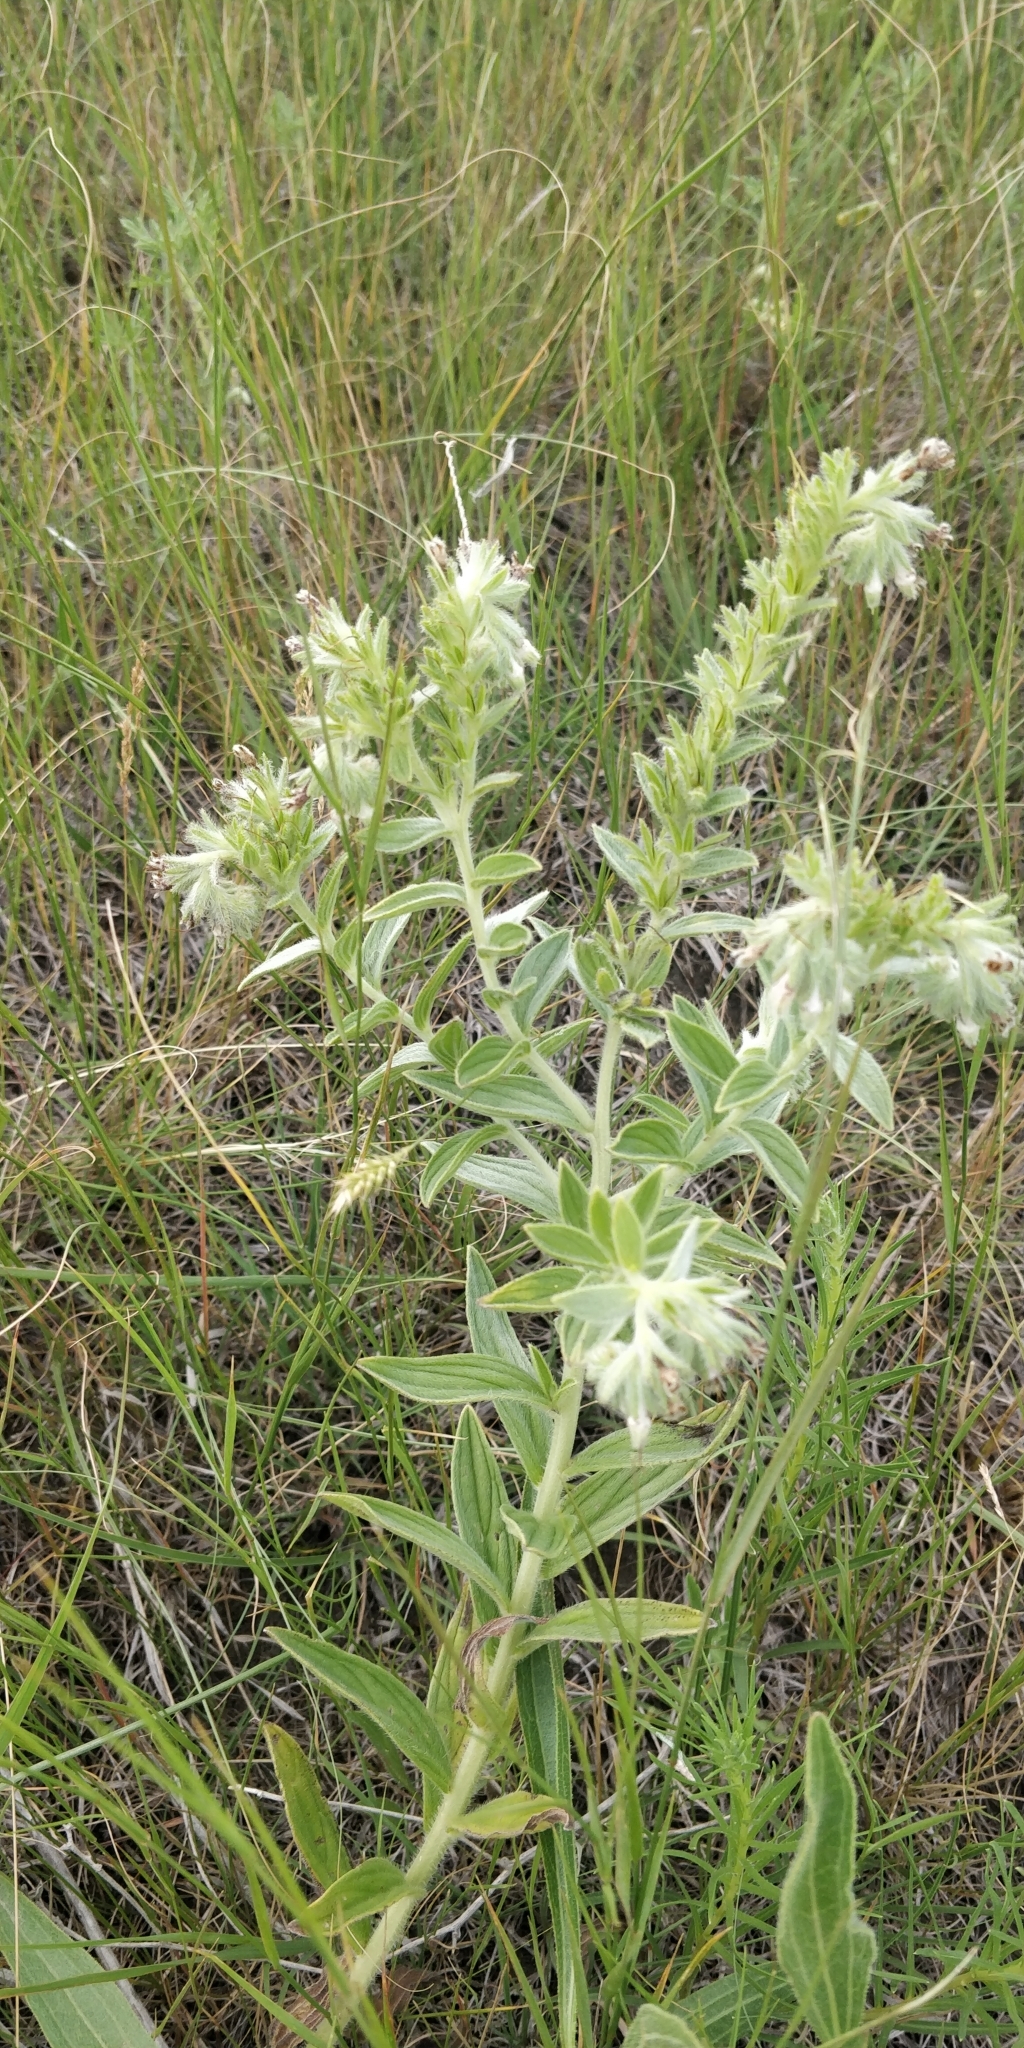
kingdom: Plantae
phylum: Tracheophyta
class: Magnoliopsida
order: Boraginales
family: Boraginaceae
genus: Lithospermum
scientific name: Lithospermum occidentale
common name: Western false gromwell
